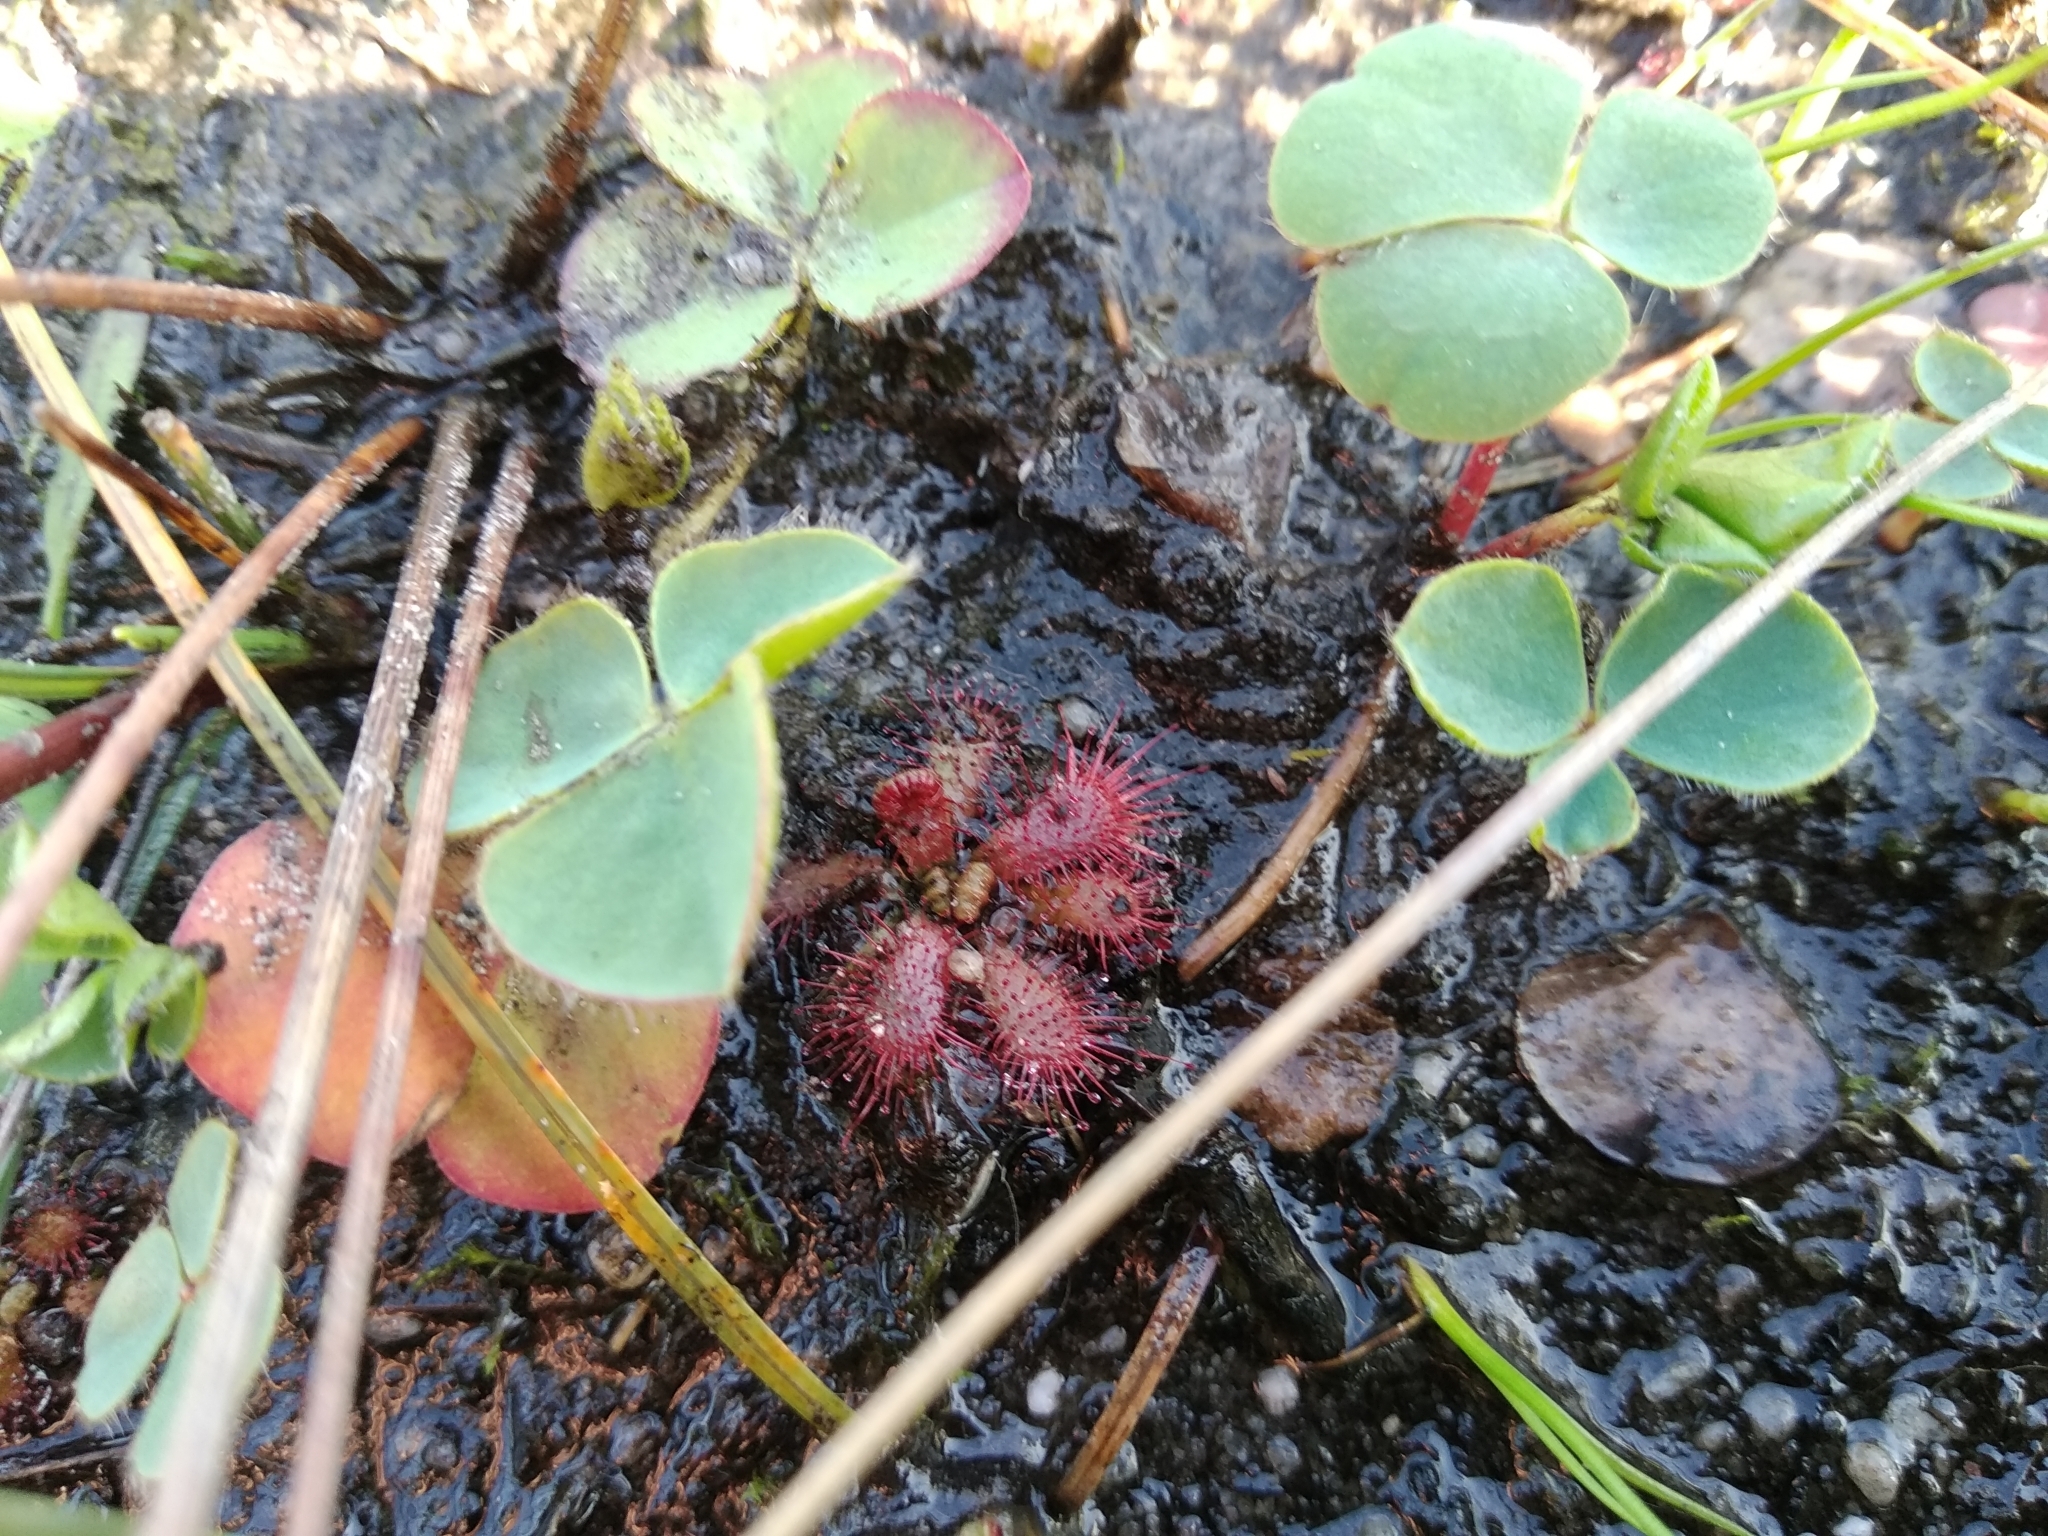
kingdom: Plantae
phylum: Tracheophyta
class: Magnoliopsida
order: Caryophyllales
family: Droseraceae
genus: Drosera
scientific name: Drosera trinervia
